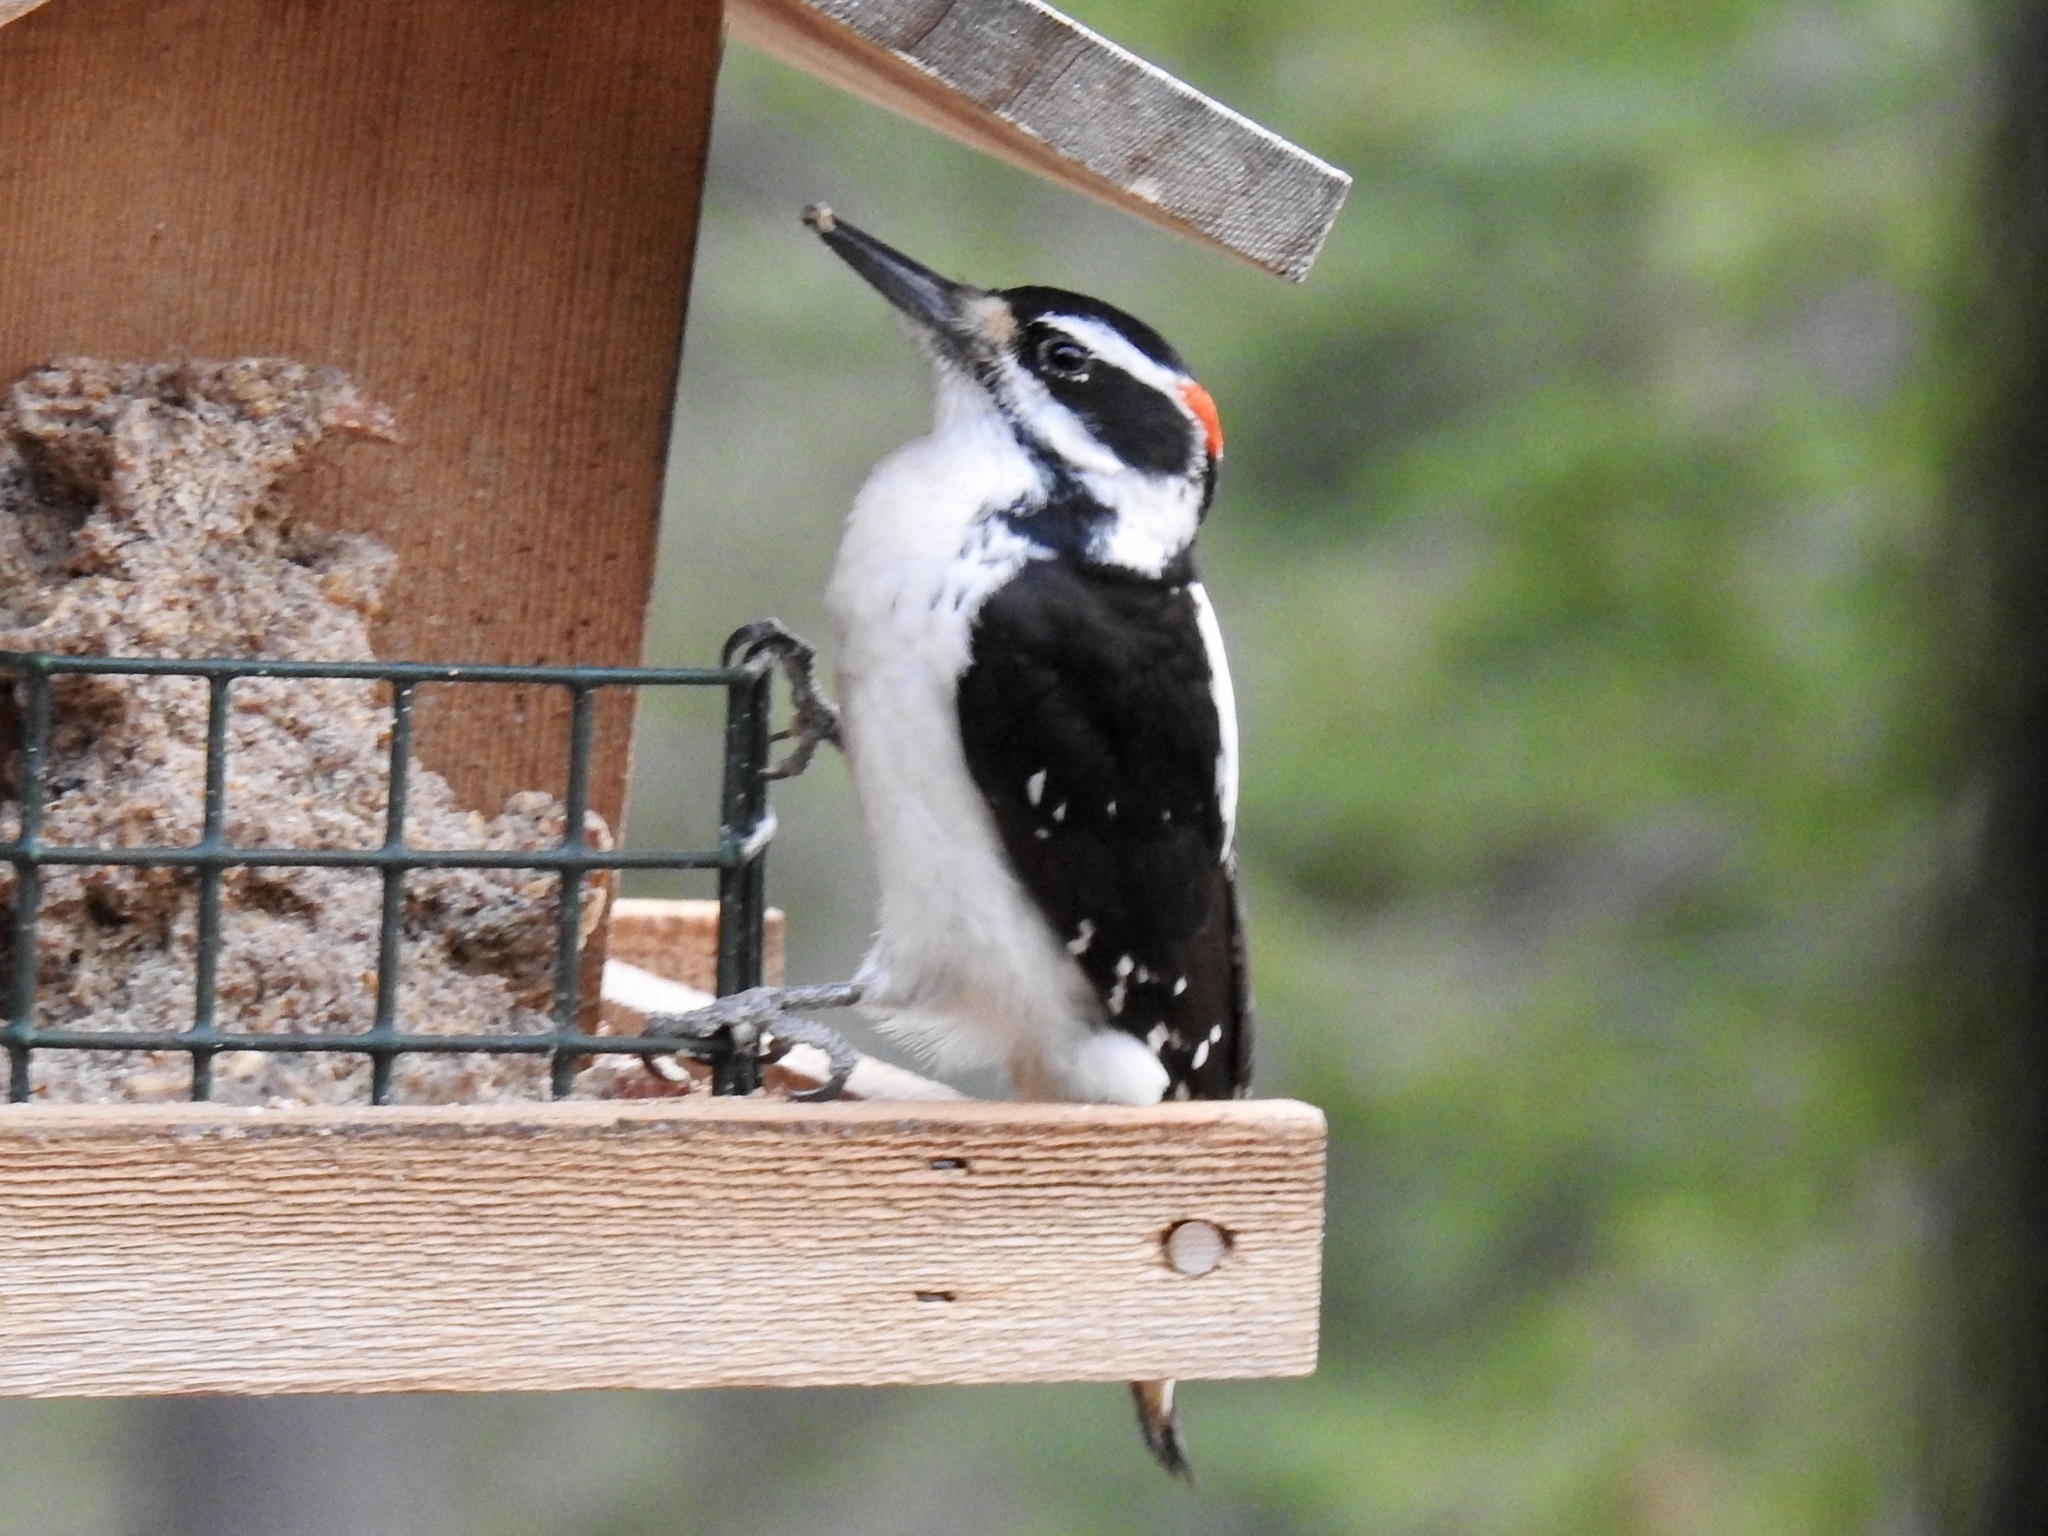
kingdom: Animalia
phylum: Chordata
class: Aves
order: Piciformes
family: Picidae
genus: Leuconotopicus
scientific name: Leuconotopicus villosus
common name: Hairy woodpecker
